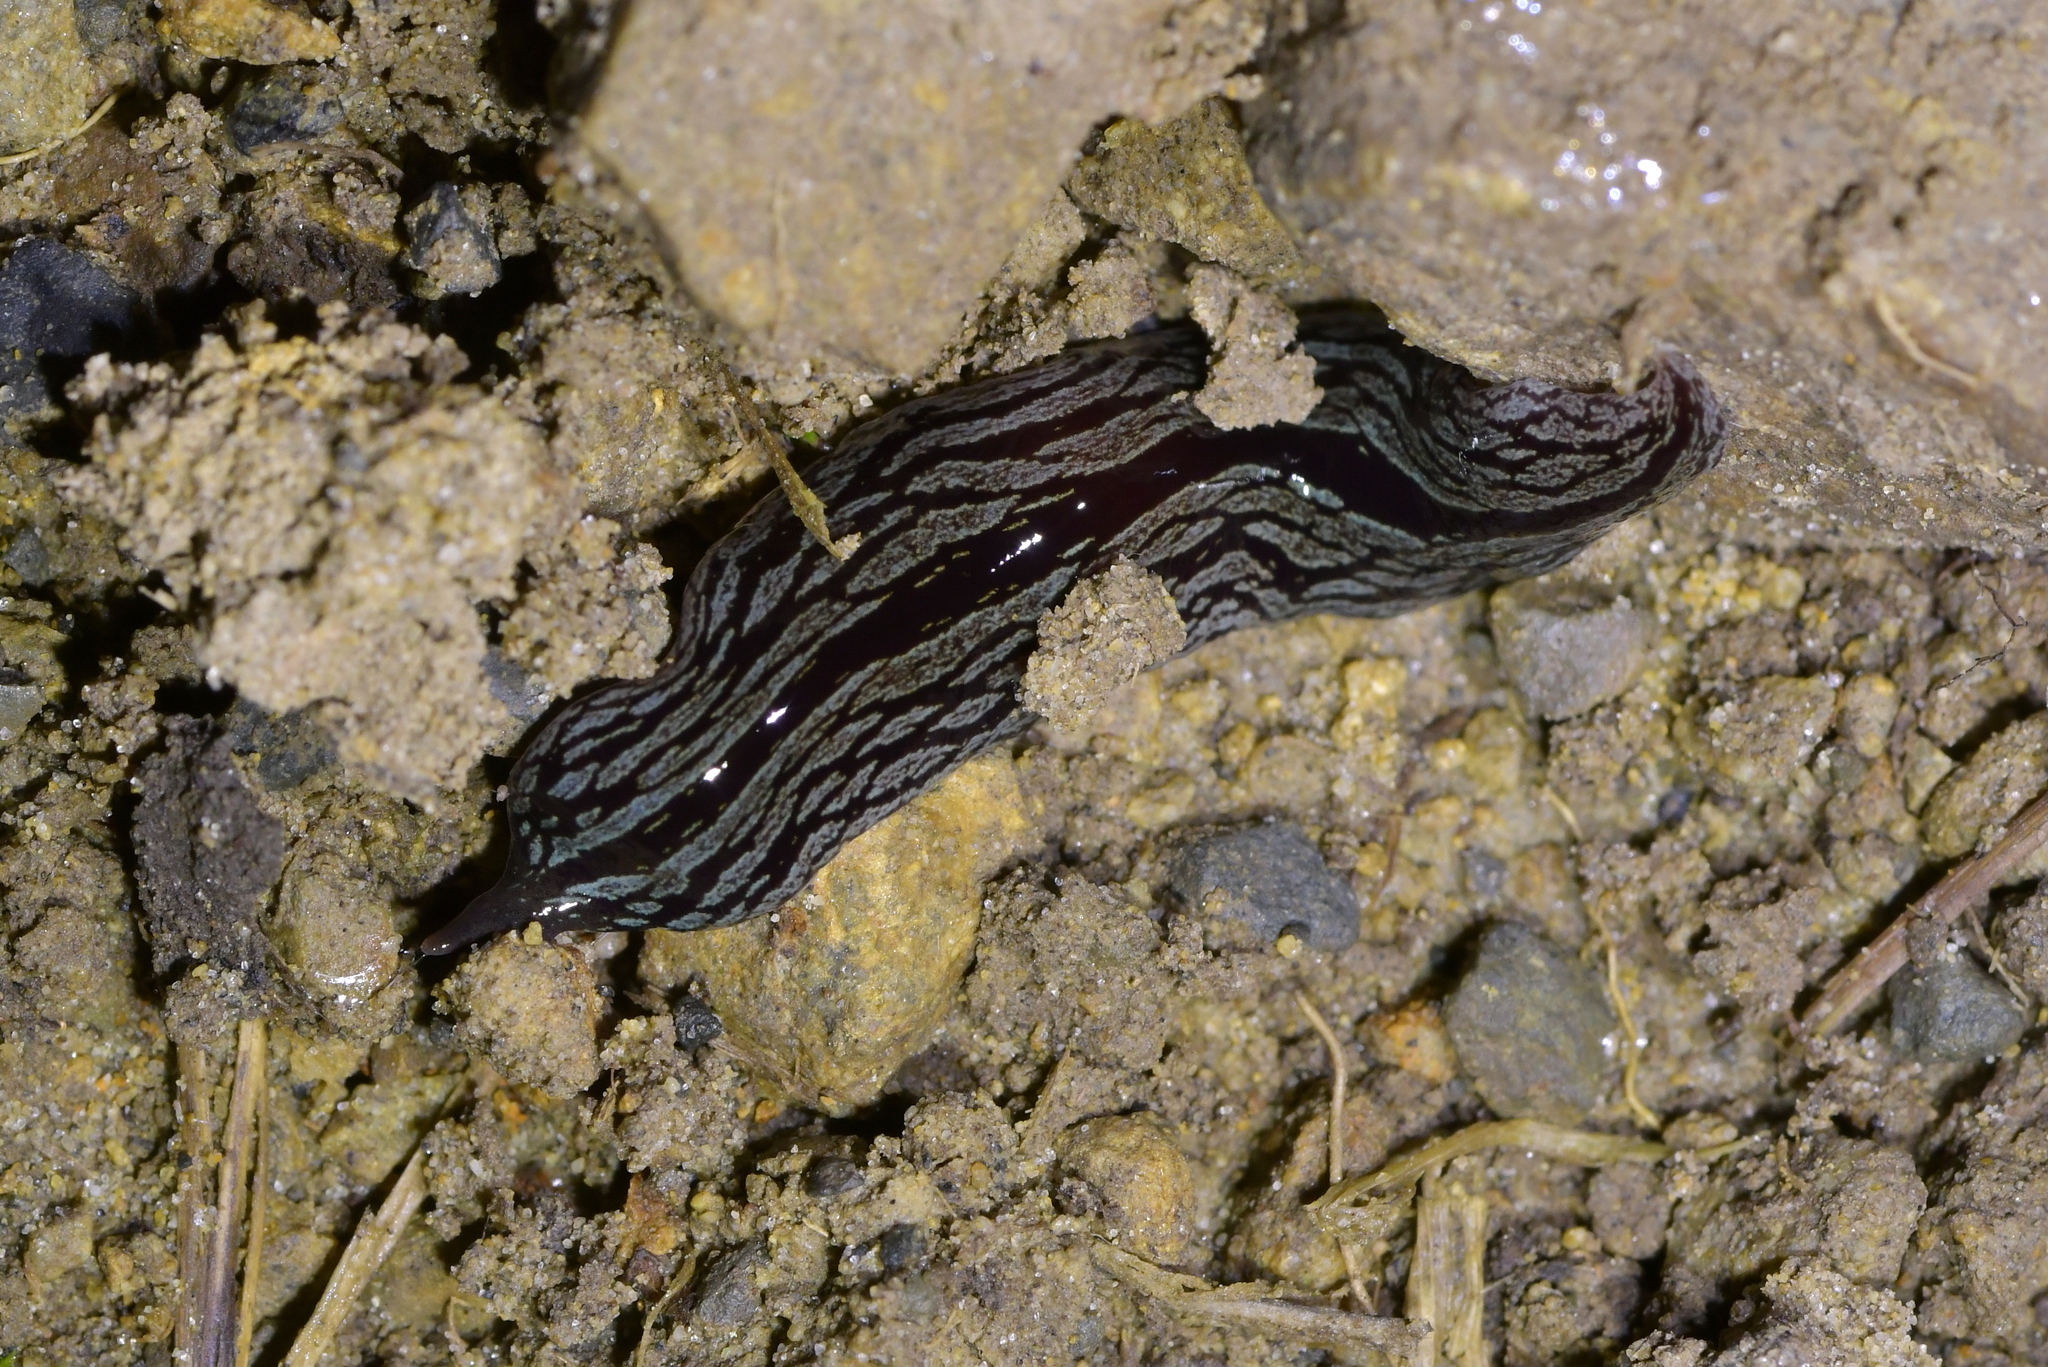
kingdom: Animalia
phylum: Platyhelminthes
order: Tricladida
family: Geoplanidae
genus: Artioposthia
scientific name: Artioposthia exulans
